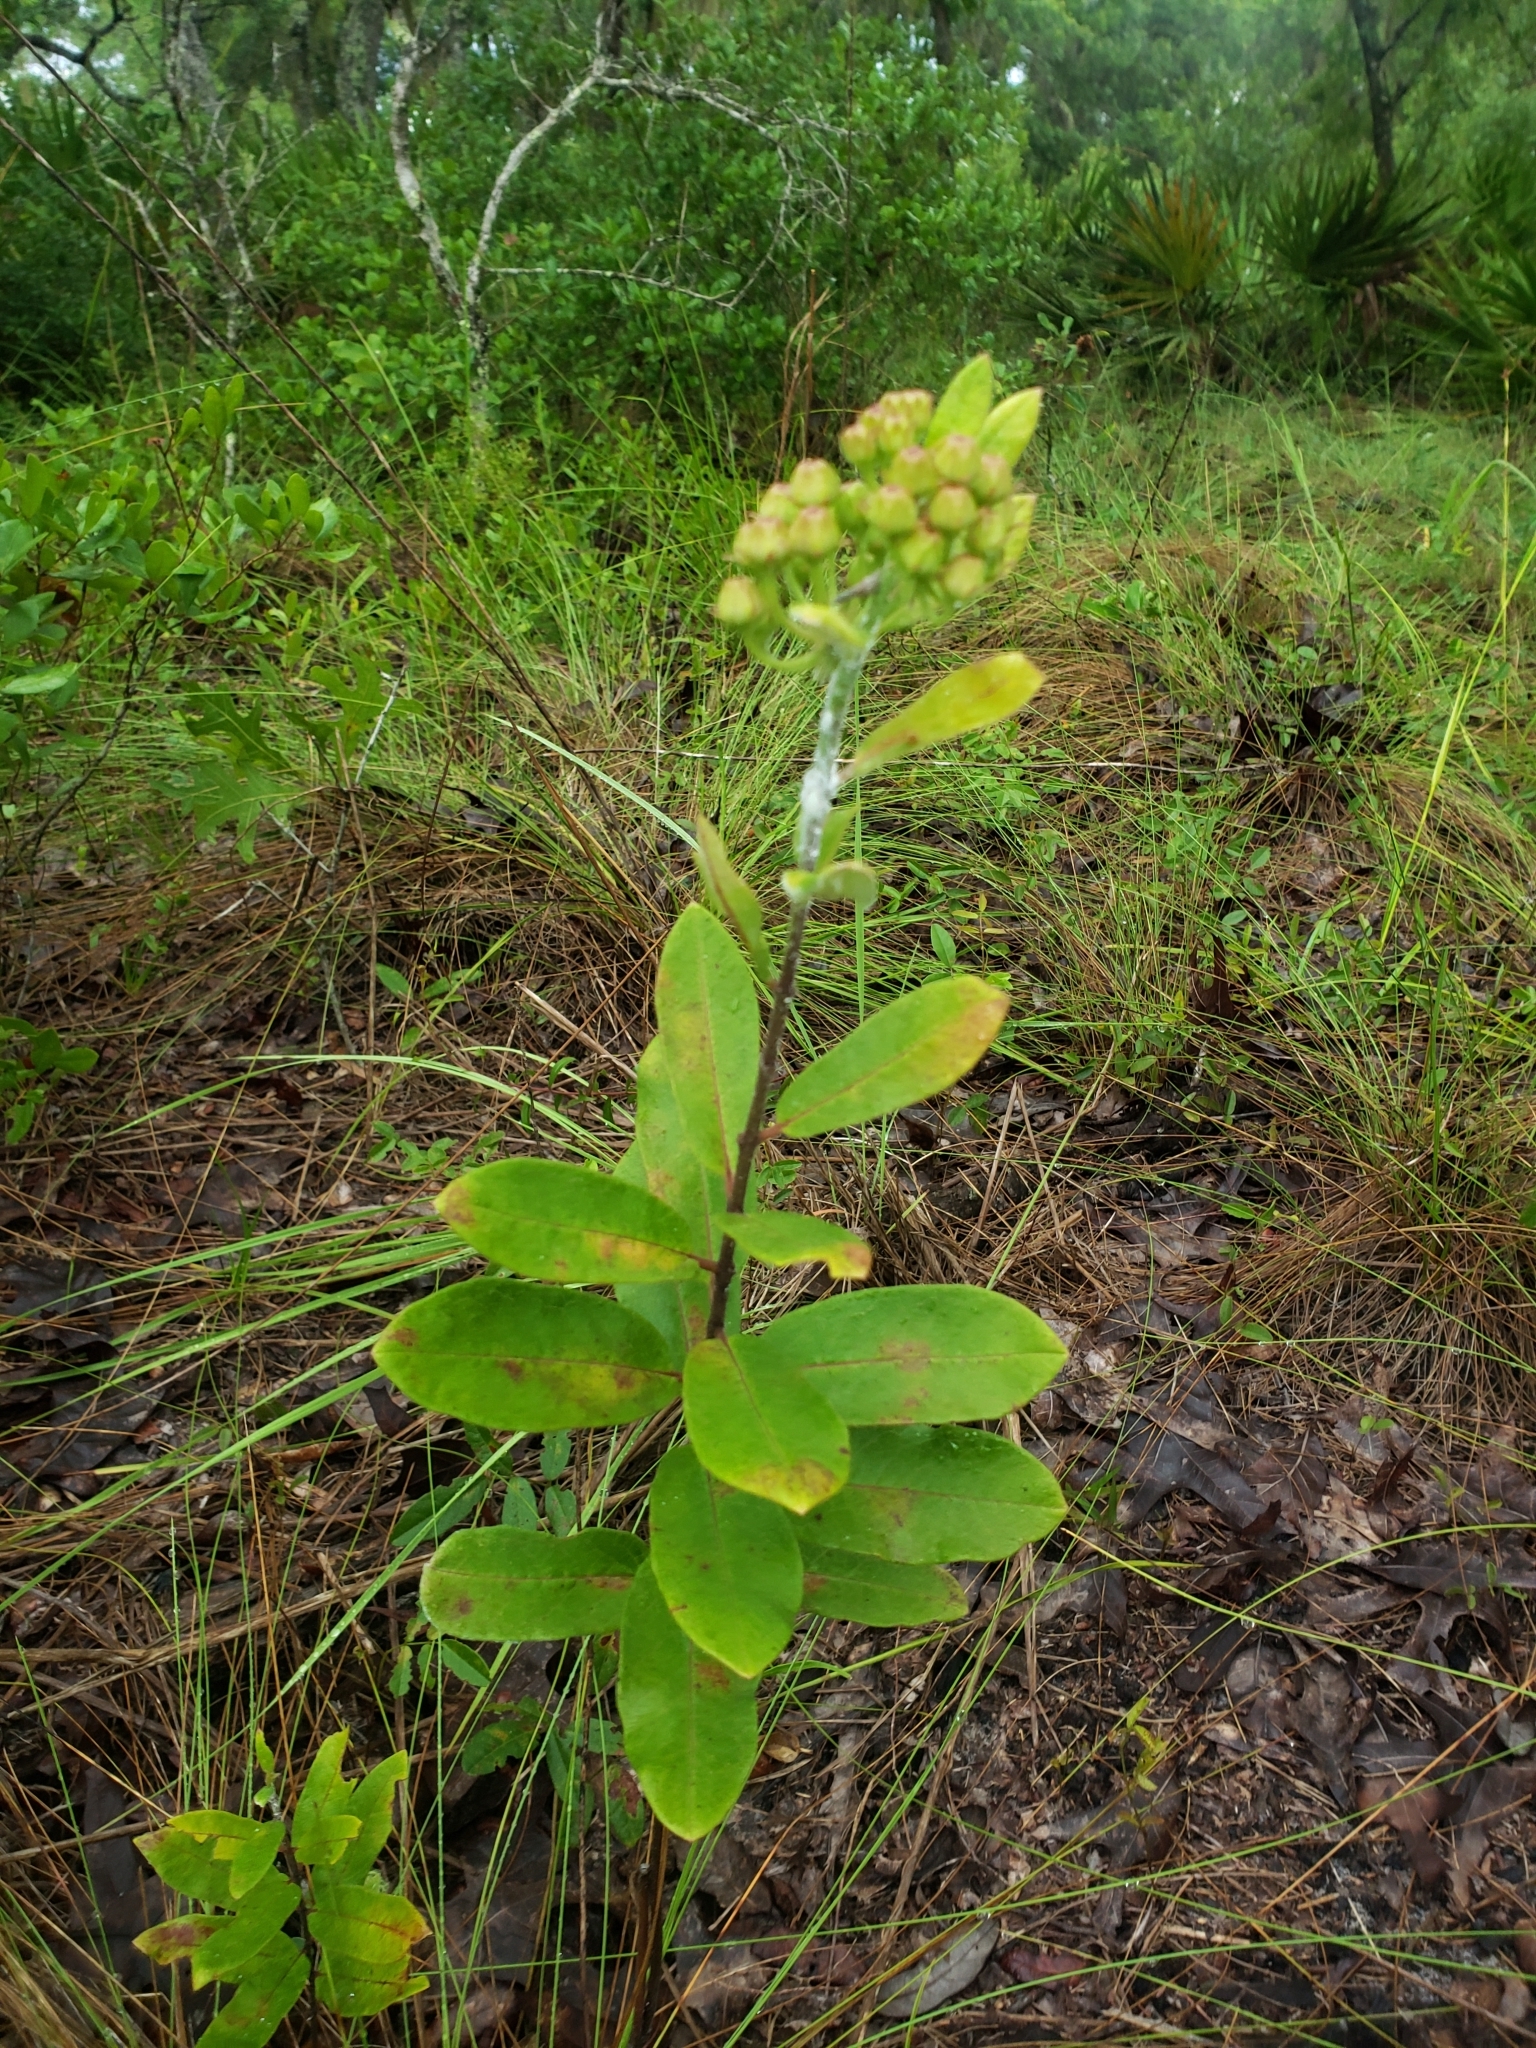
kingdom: Plantae
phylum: Tracheophyta
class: Magnoliopsida
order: Gentianales
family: Apocynaceae
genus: Asclepias
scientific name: Asclepias tomentosa
